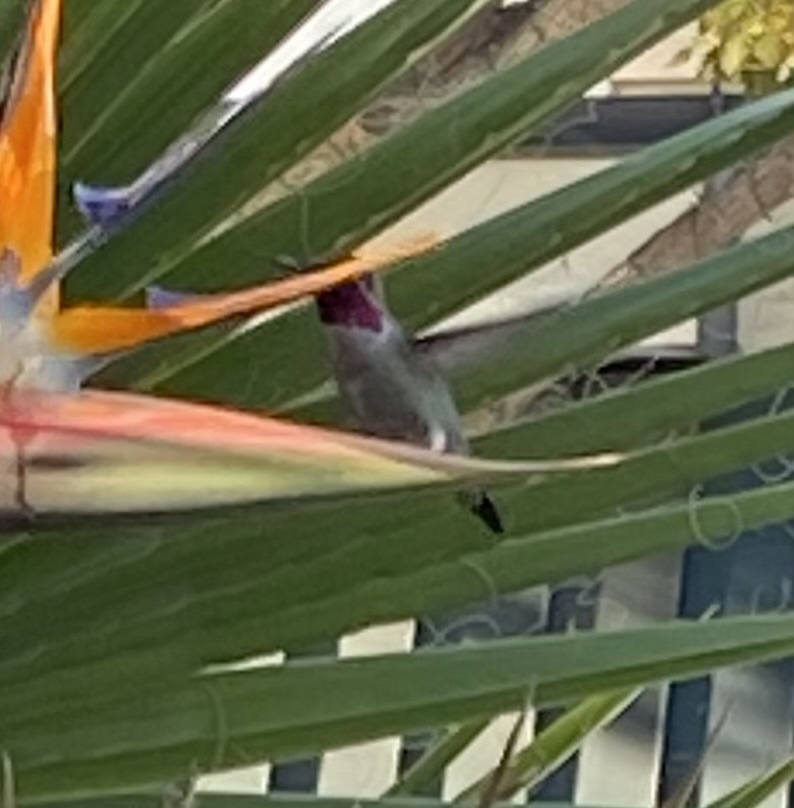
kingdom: Animalia
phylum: Chordata
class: Aves
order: Apodiformes
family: Trochilidae
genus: Calypte
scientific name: Calypte anna
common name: Anna's hummingbird
